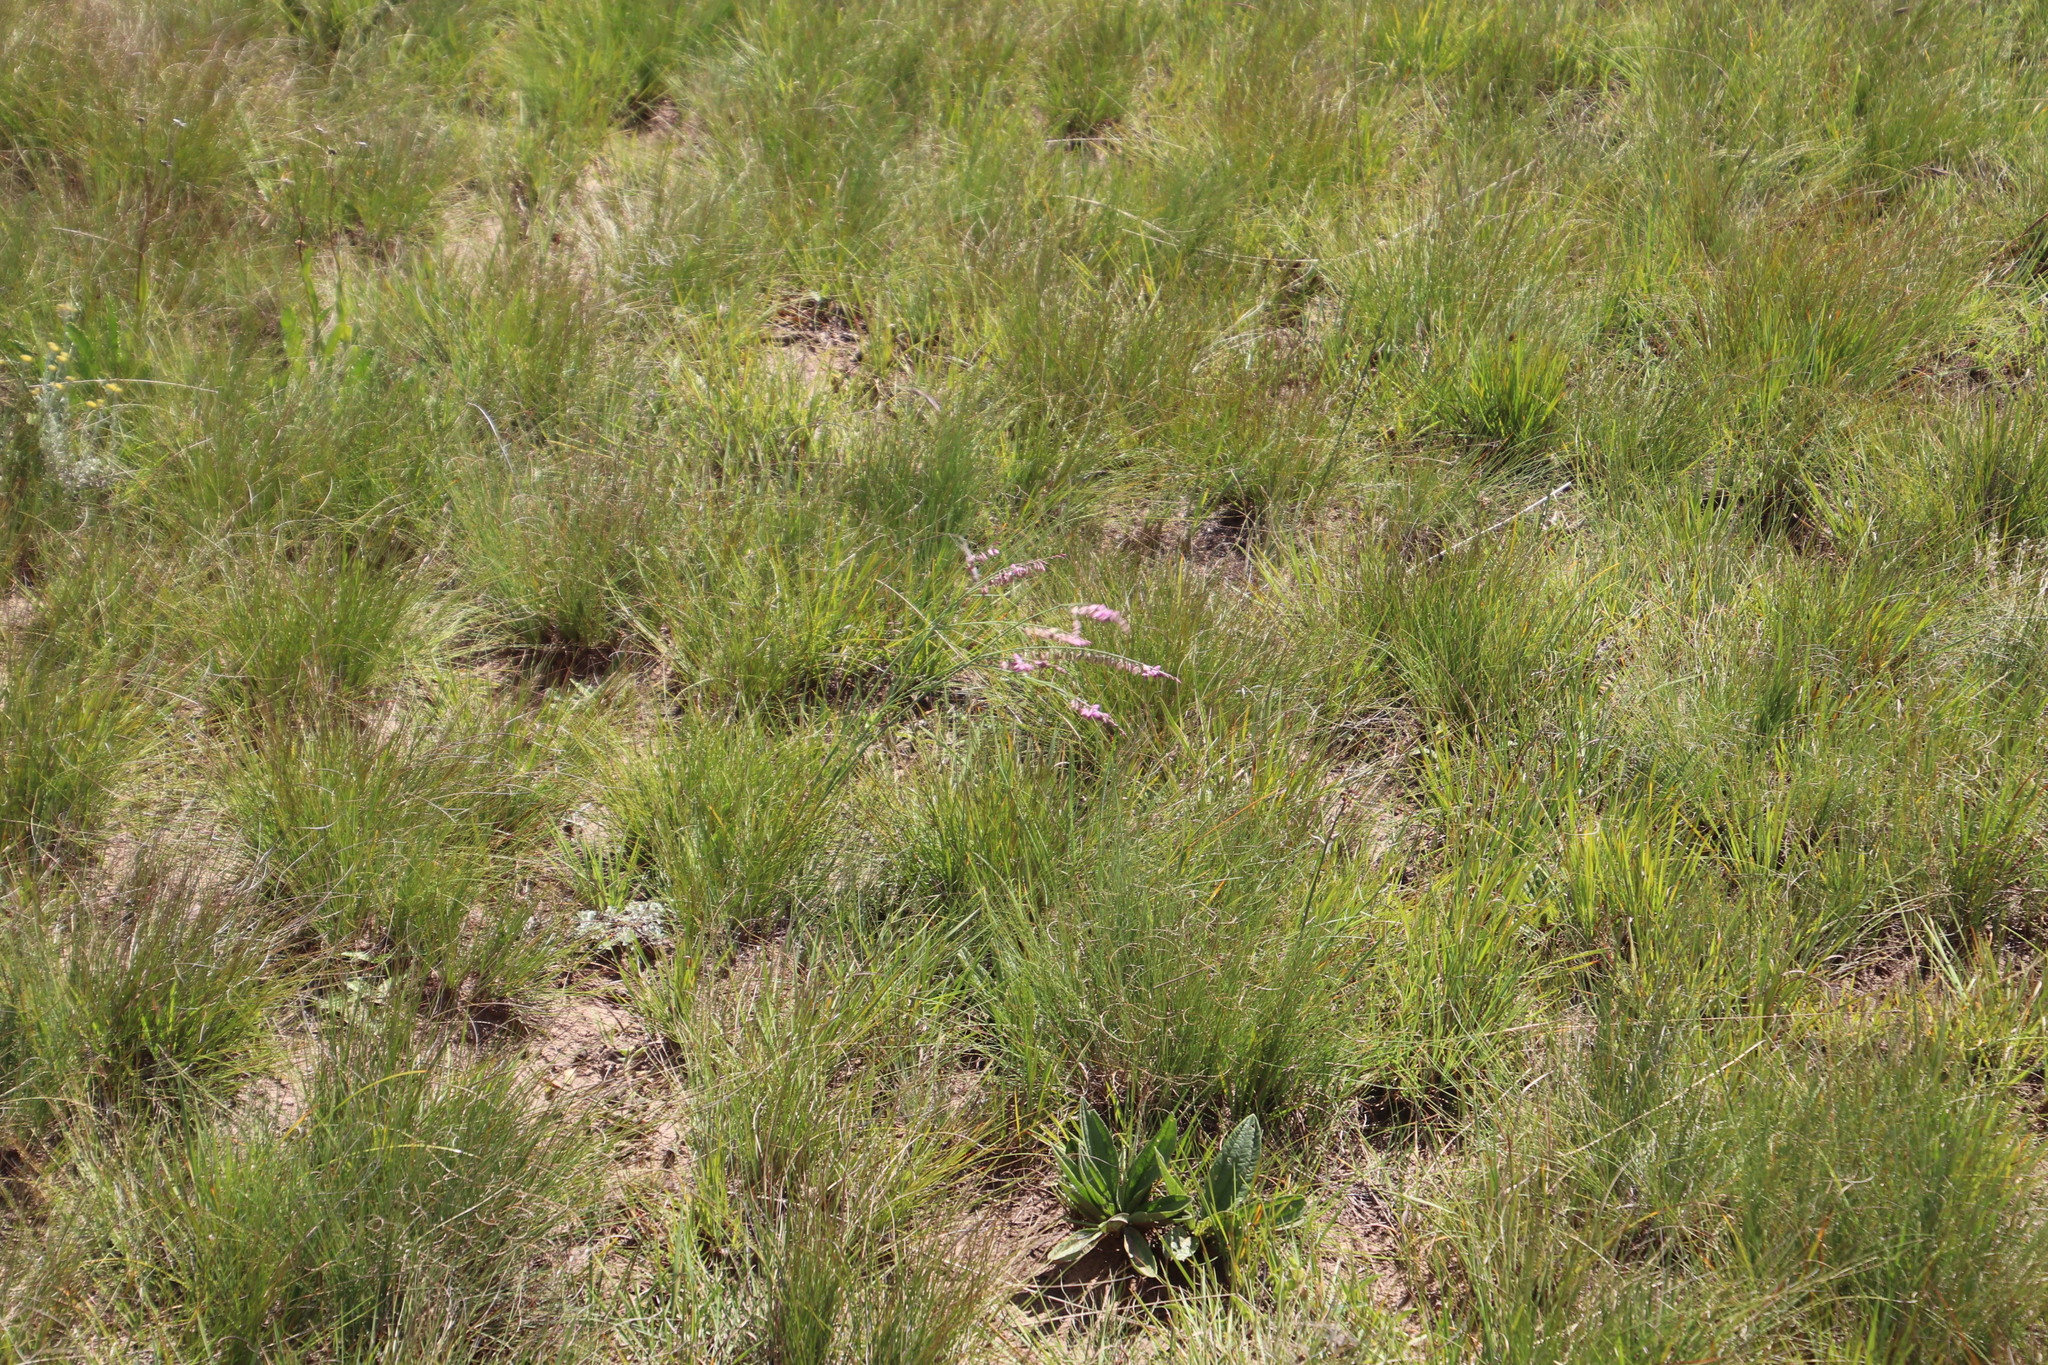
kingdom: Plantae
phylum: Tracheophyta
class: Magnoliopsida
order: Fabales
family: Polygalaceae
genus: Polygala
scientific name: Polygala hottentotta
